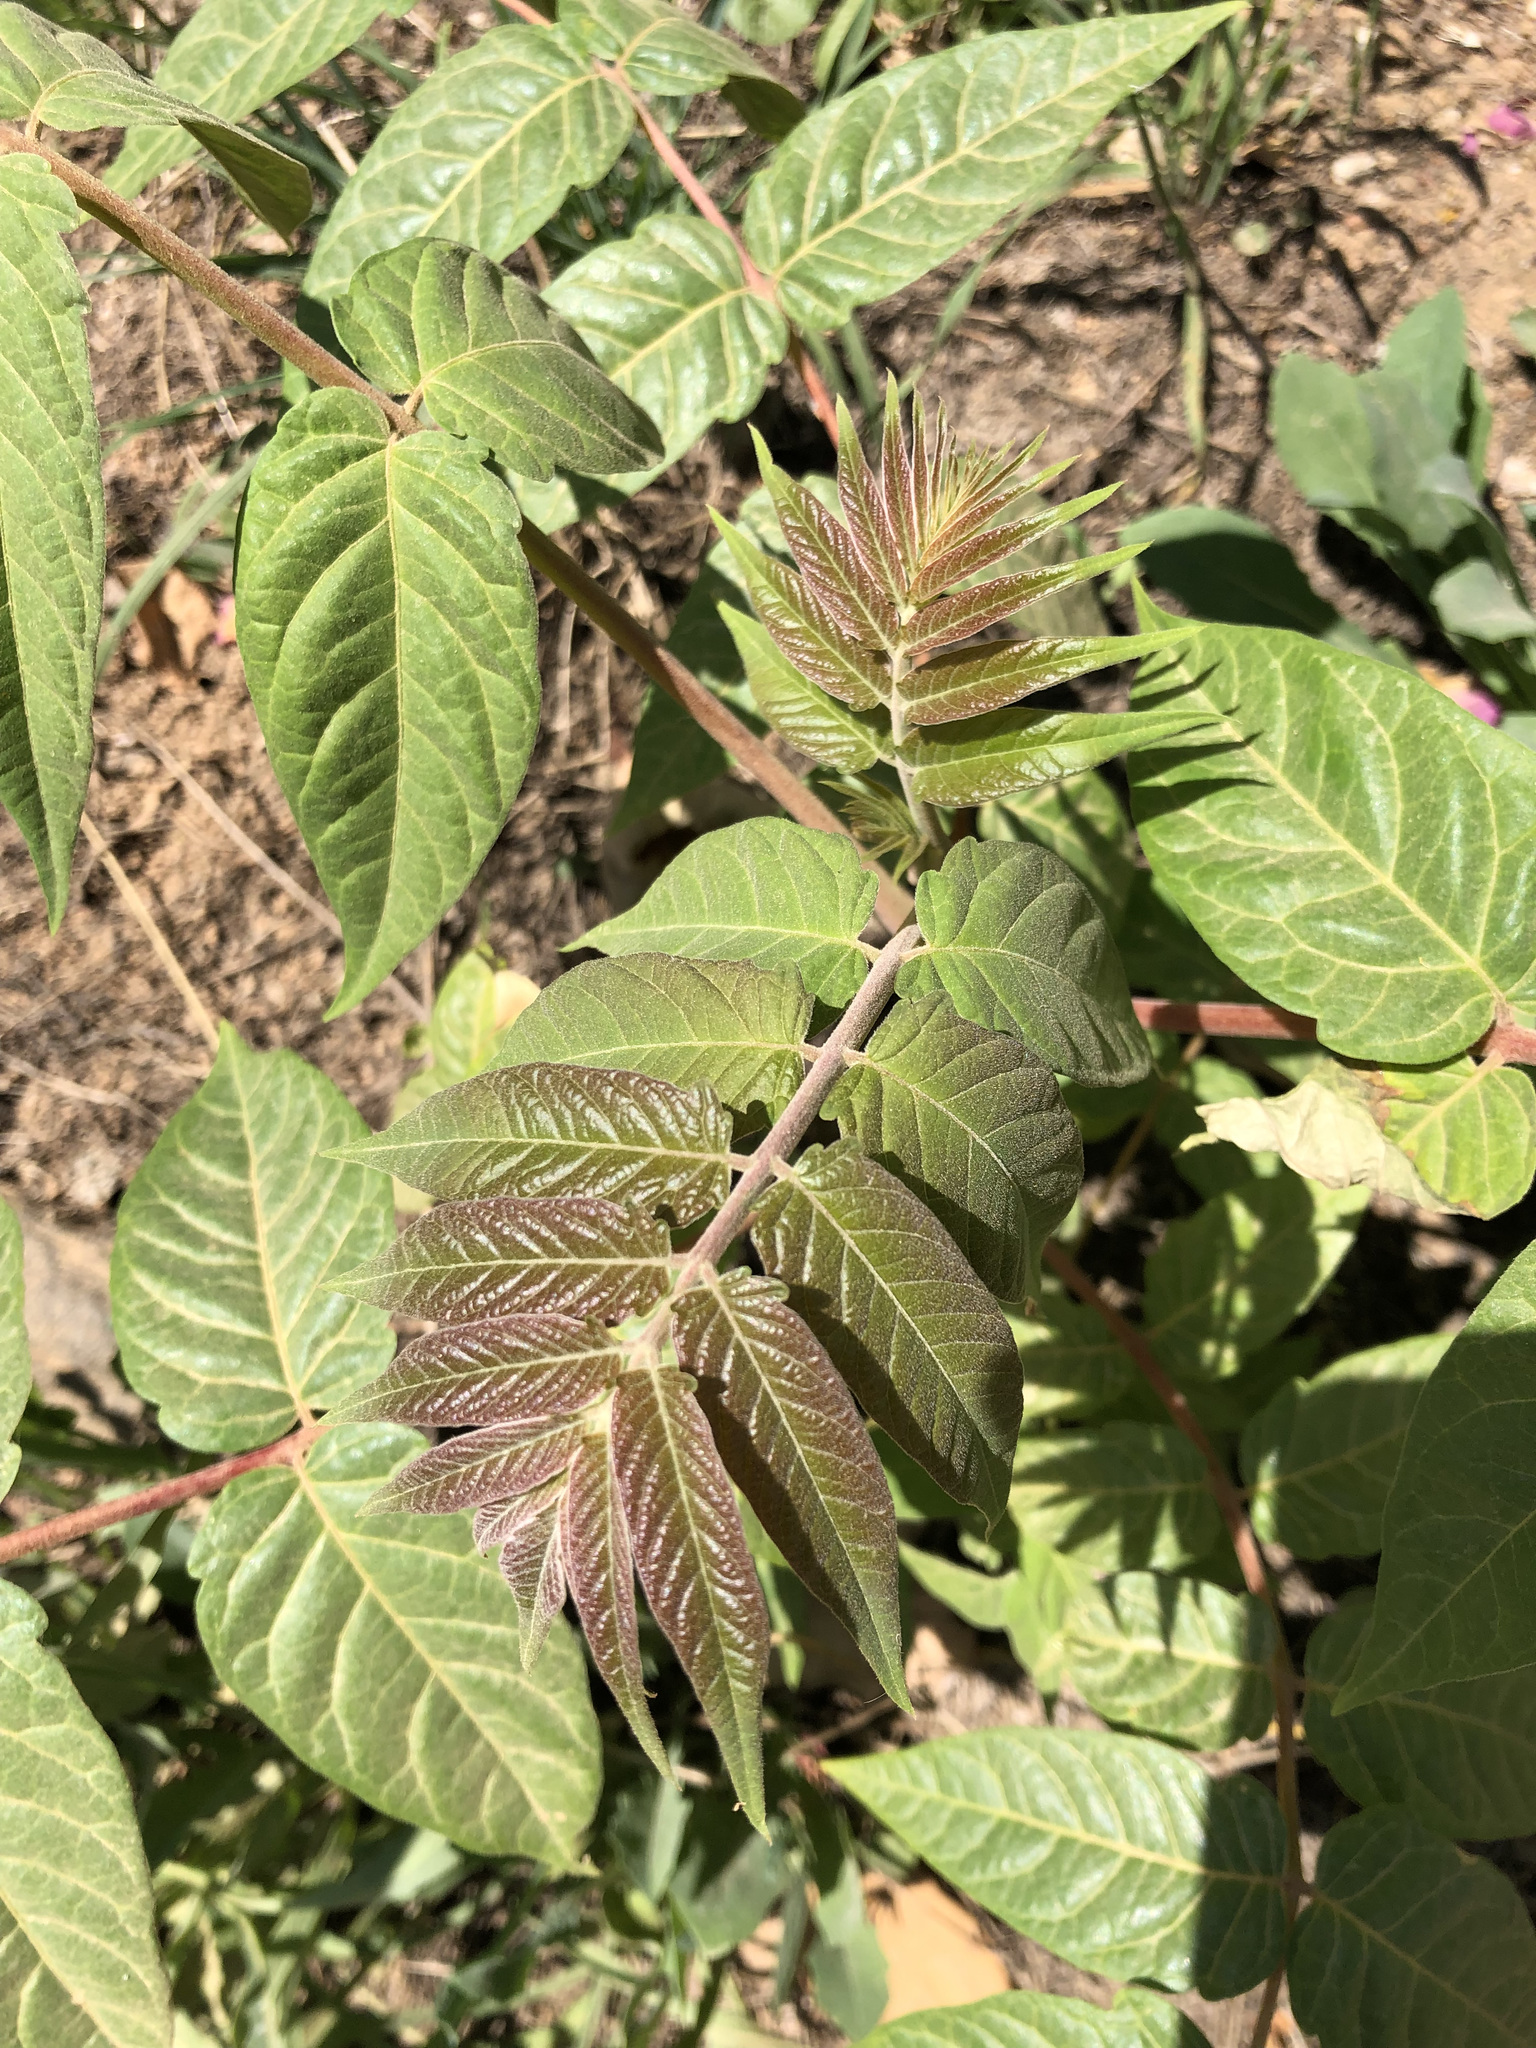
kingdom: Plantae
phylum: Tracheophyta
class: Magnoliopsida
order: Sapindales
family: Simaroubaceae
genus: Ailanthus
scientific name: Ailanthus altissima
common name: Tree-of-heaven
